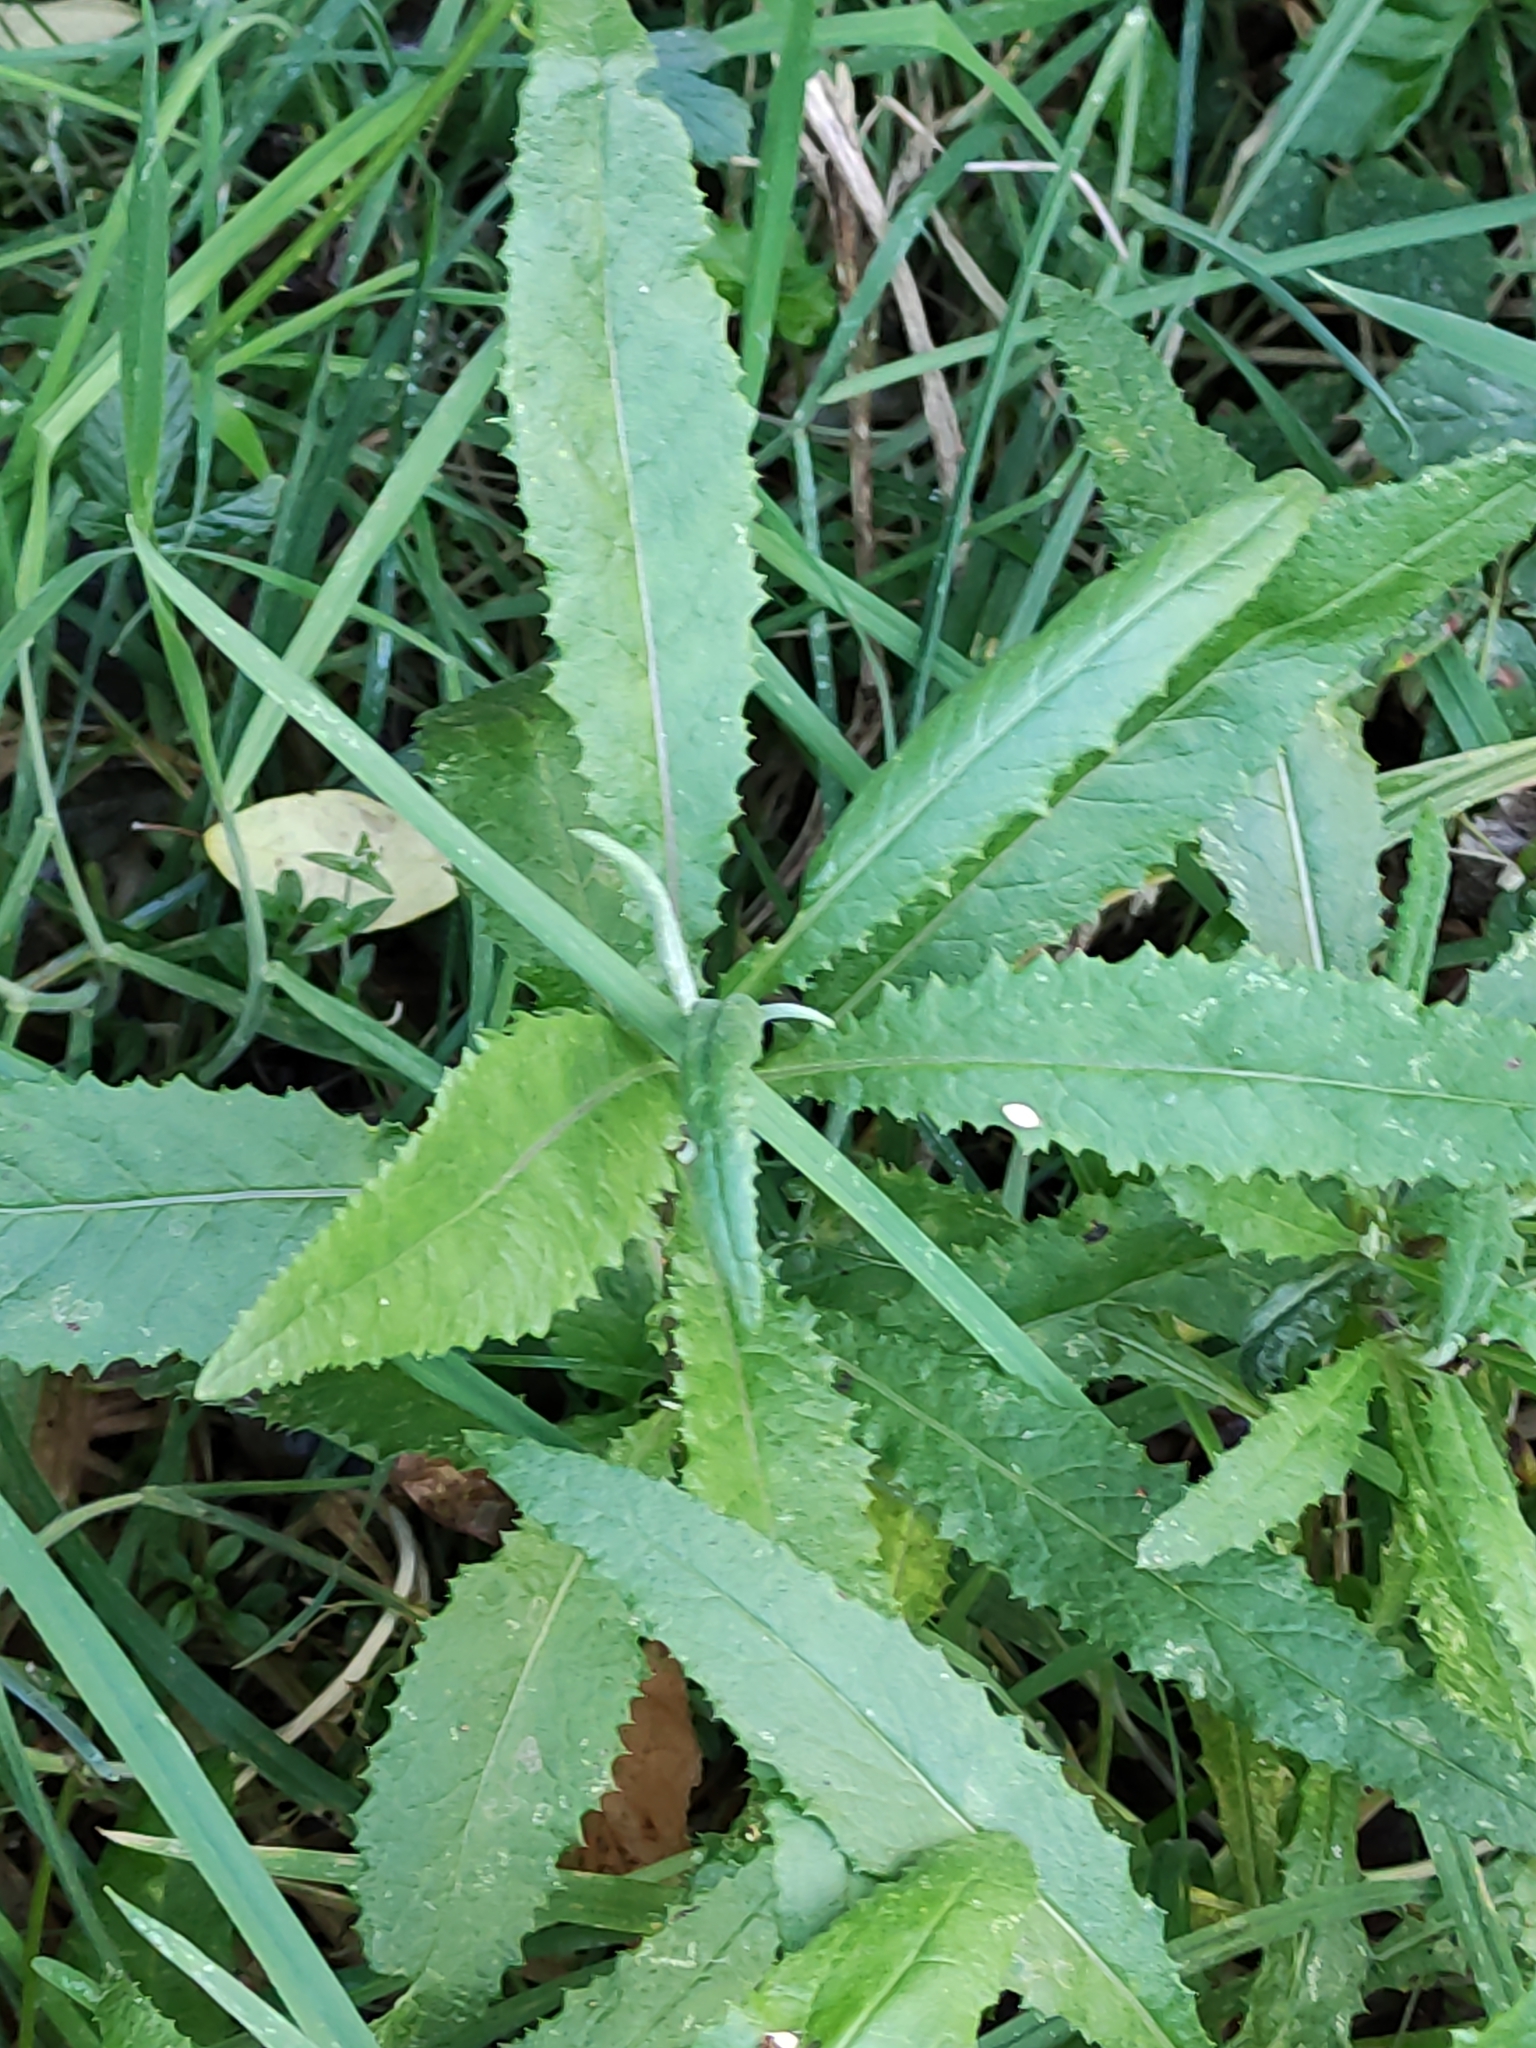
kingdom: Plantae
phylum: Tracheophyta
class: Magnoliopsida
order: Asterales
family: Asteraceae
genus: Senecio
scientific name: Senecio minimus
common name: Toothed fireweed
